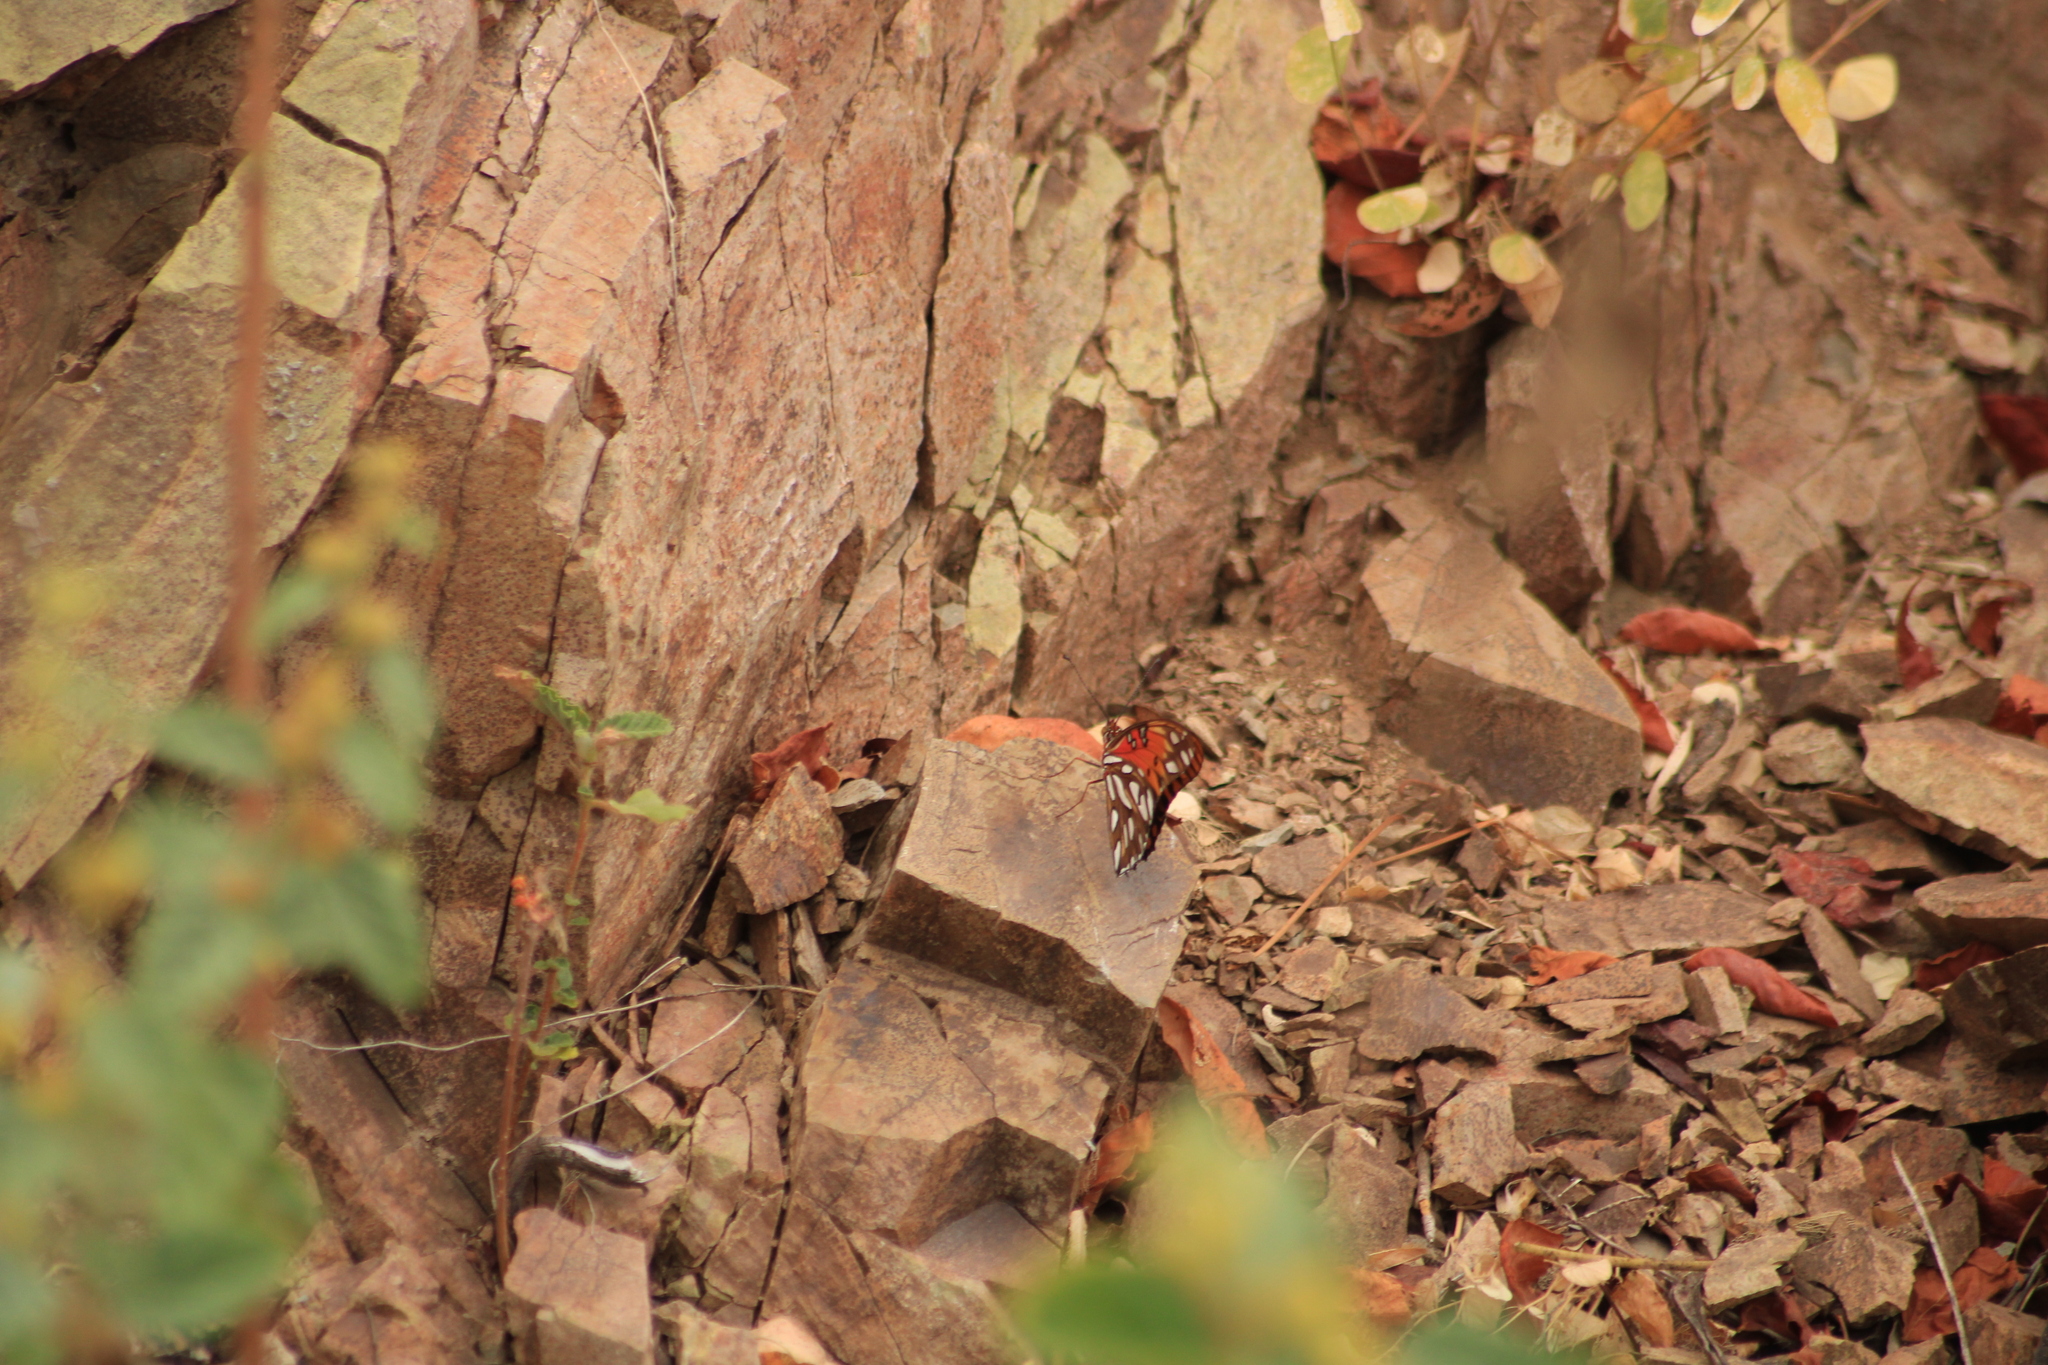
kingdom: Animalia
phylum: Arthropoda
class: Insecta
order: Lepidoptera
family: Nymphalidae
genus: Dione
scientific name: Dione vanillae
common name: Gulf fritillary
